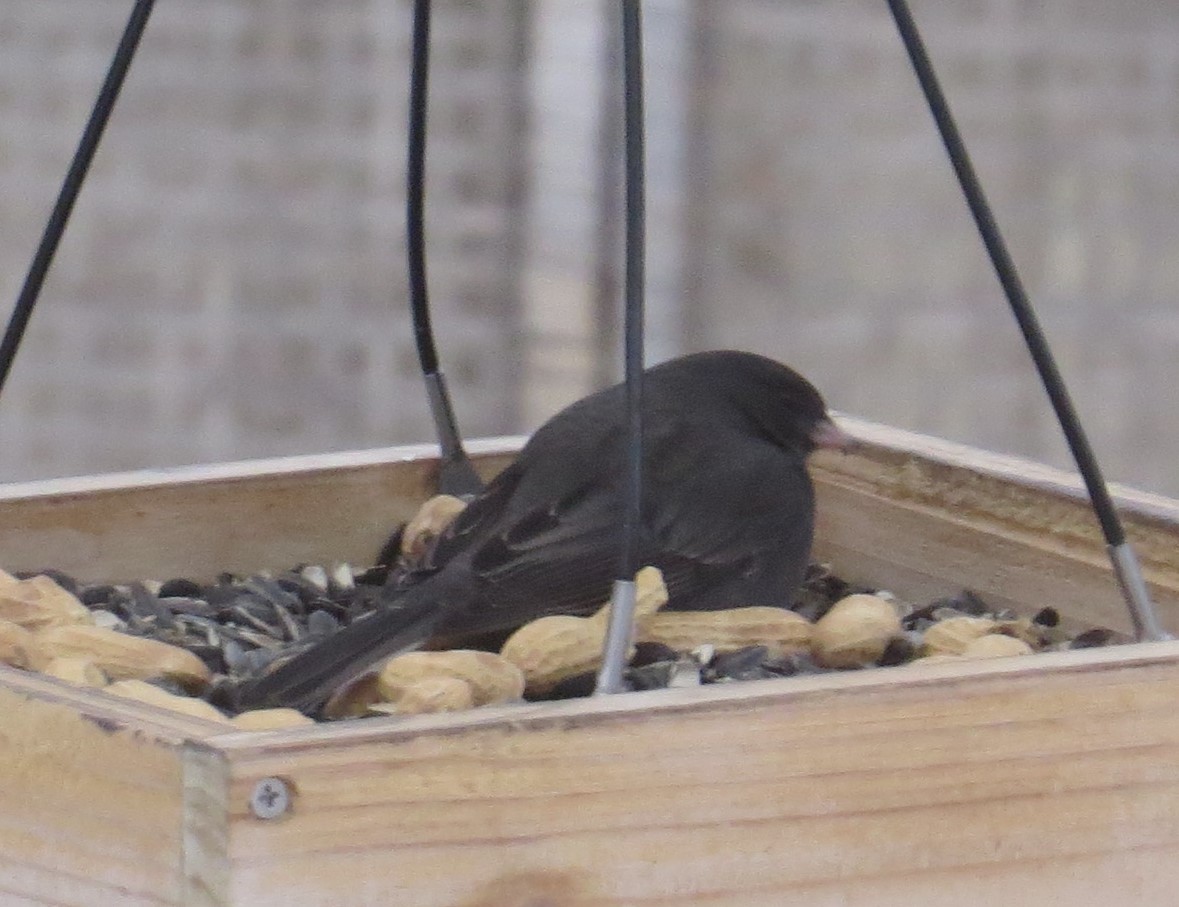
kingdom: Animalia
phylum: Chordata
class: Aves
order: Passeriformes
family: Passerellidae
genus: Junco
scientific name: Junco hyemalis
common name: Dark-eyed junco
